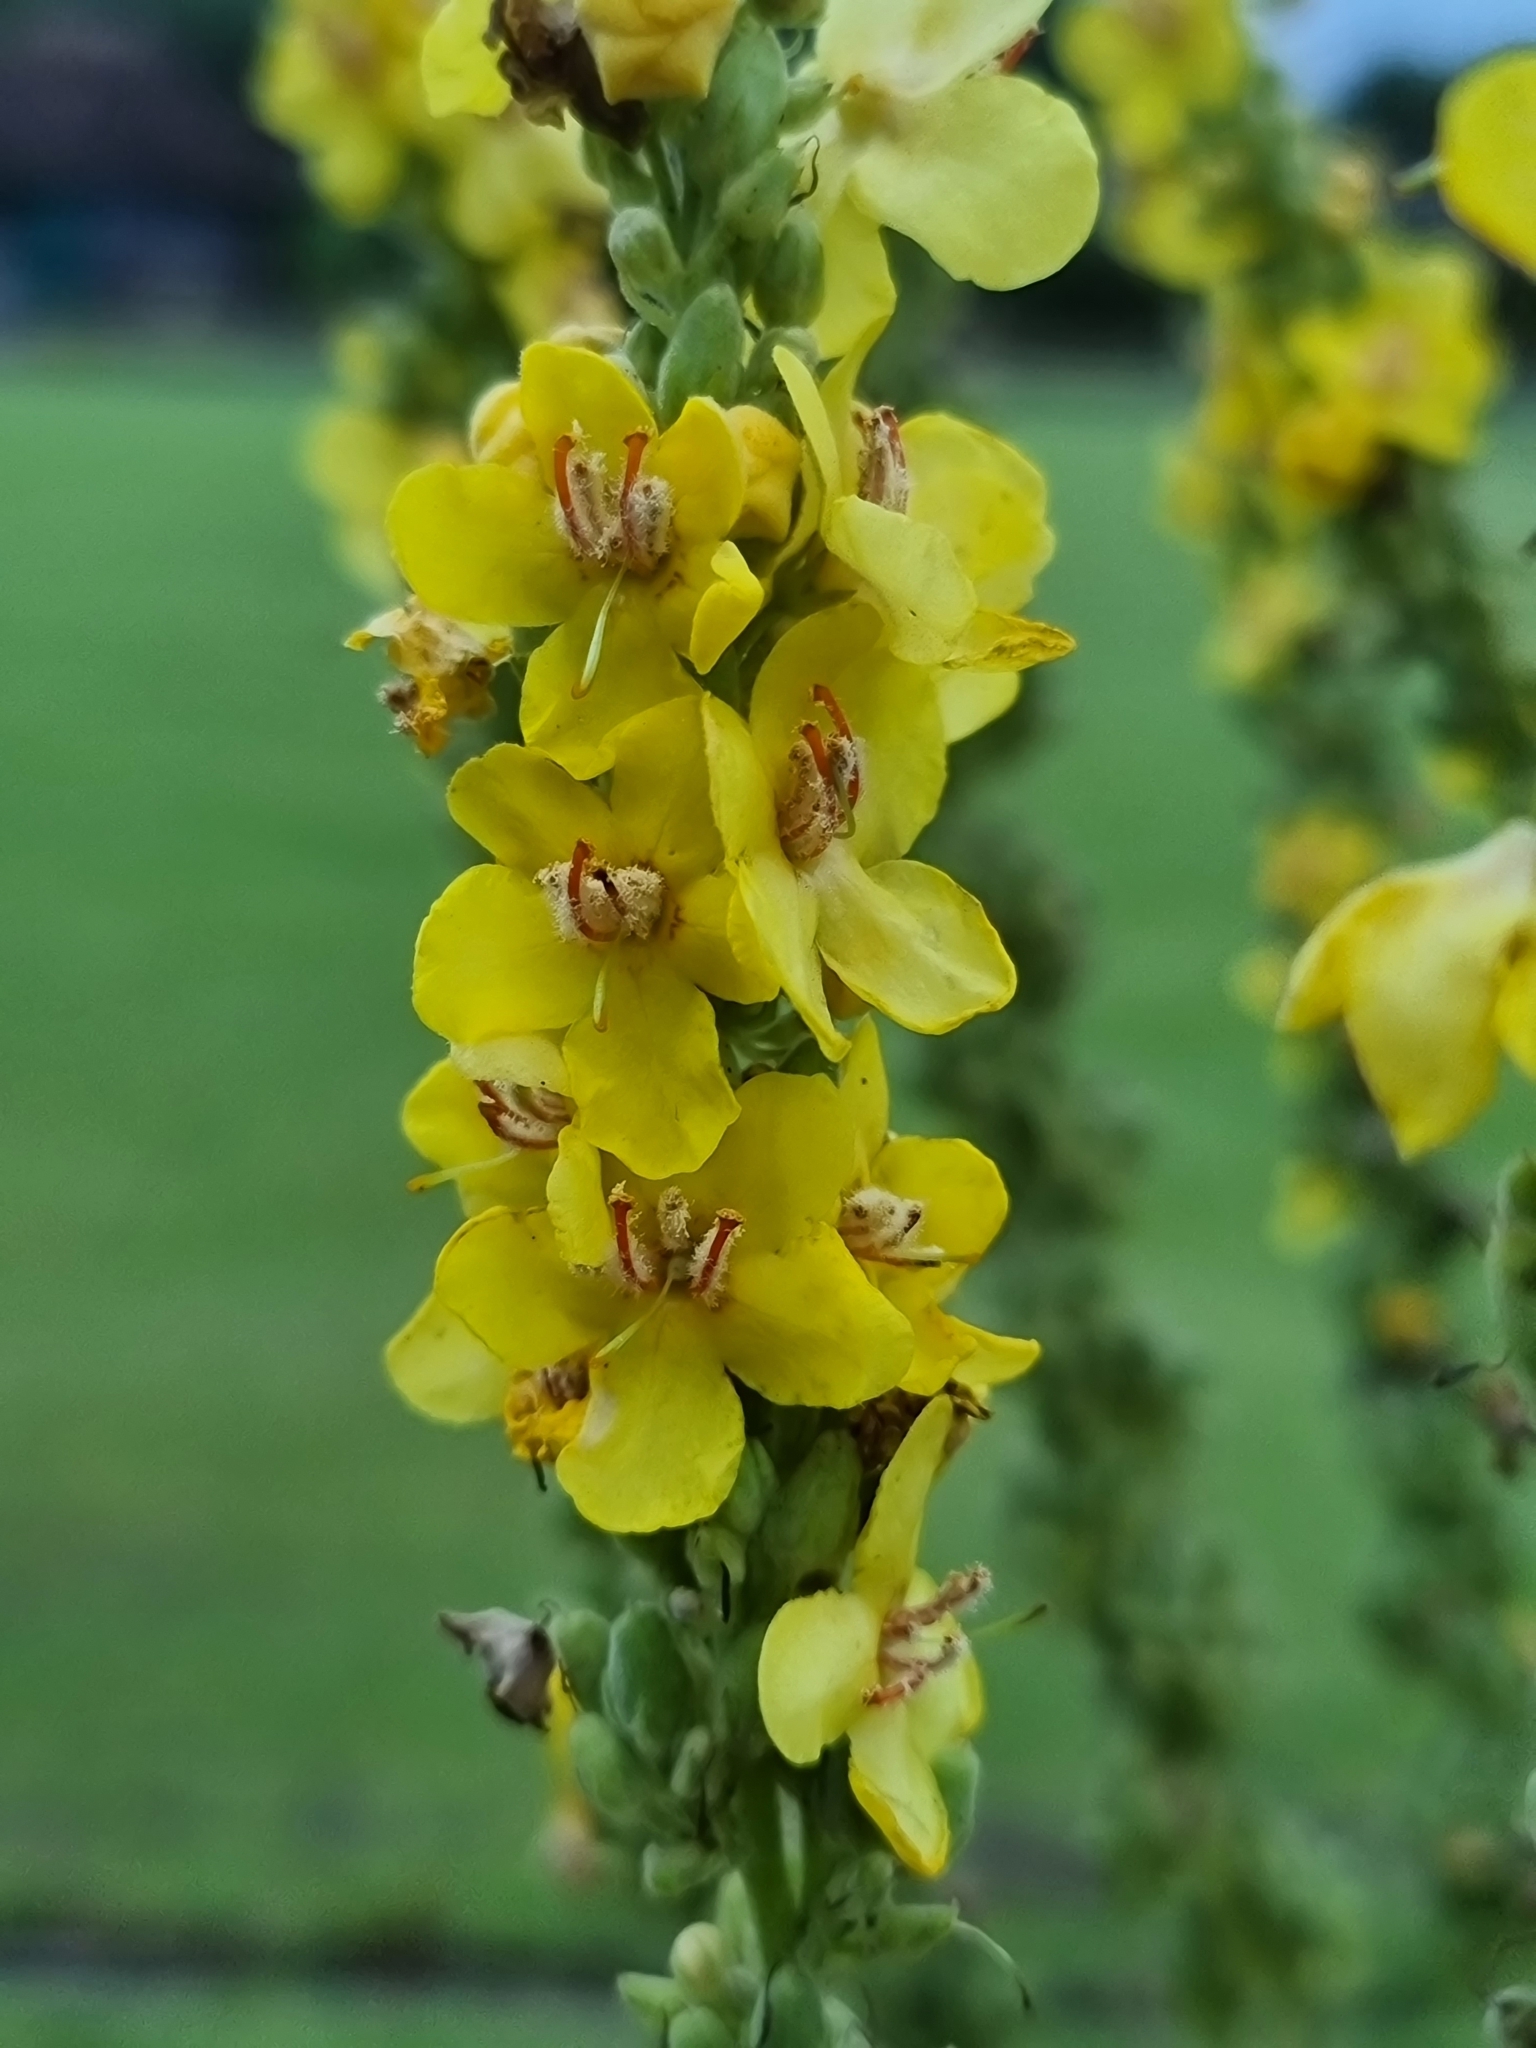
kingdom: Plantae
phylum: Tracheophyta
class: Magnoliopsida
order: Lamiales
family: Scrophulariaceae
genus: Verbascum
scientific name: Verbascum speciosum
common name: Hungarian mullein
